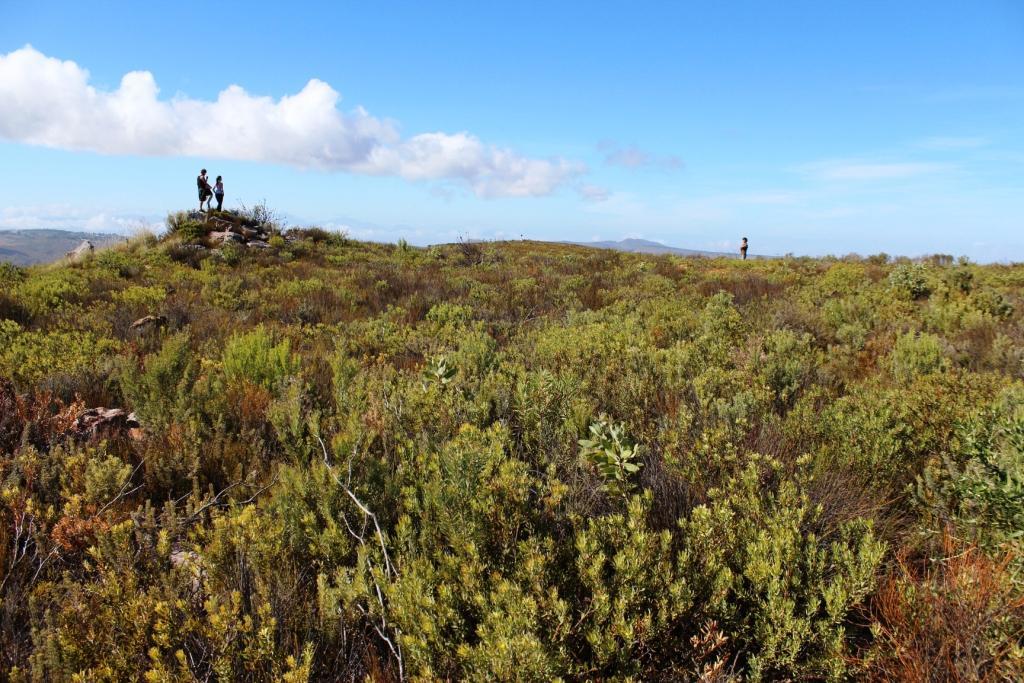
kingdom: Plantae
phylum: Tracheophyta
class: Magnoliopsida
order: Proteales
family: Proteaceae
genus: Leucadendron
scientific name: Leucadendron glaberrimum
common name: Common oily conebush
